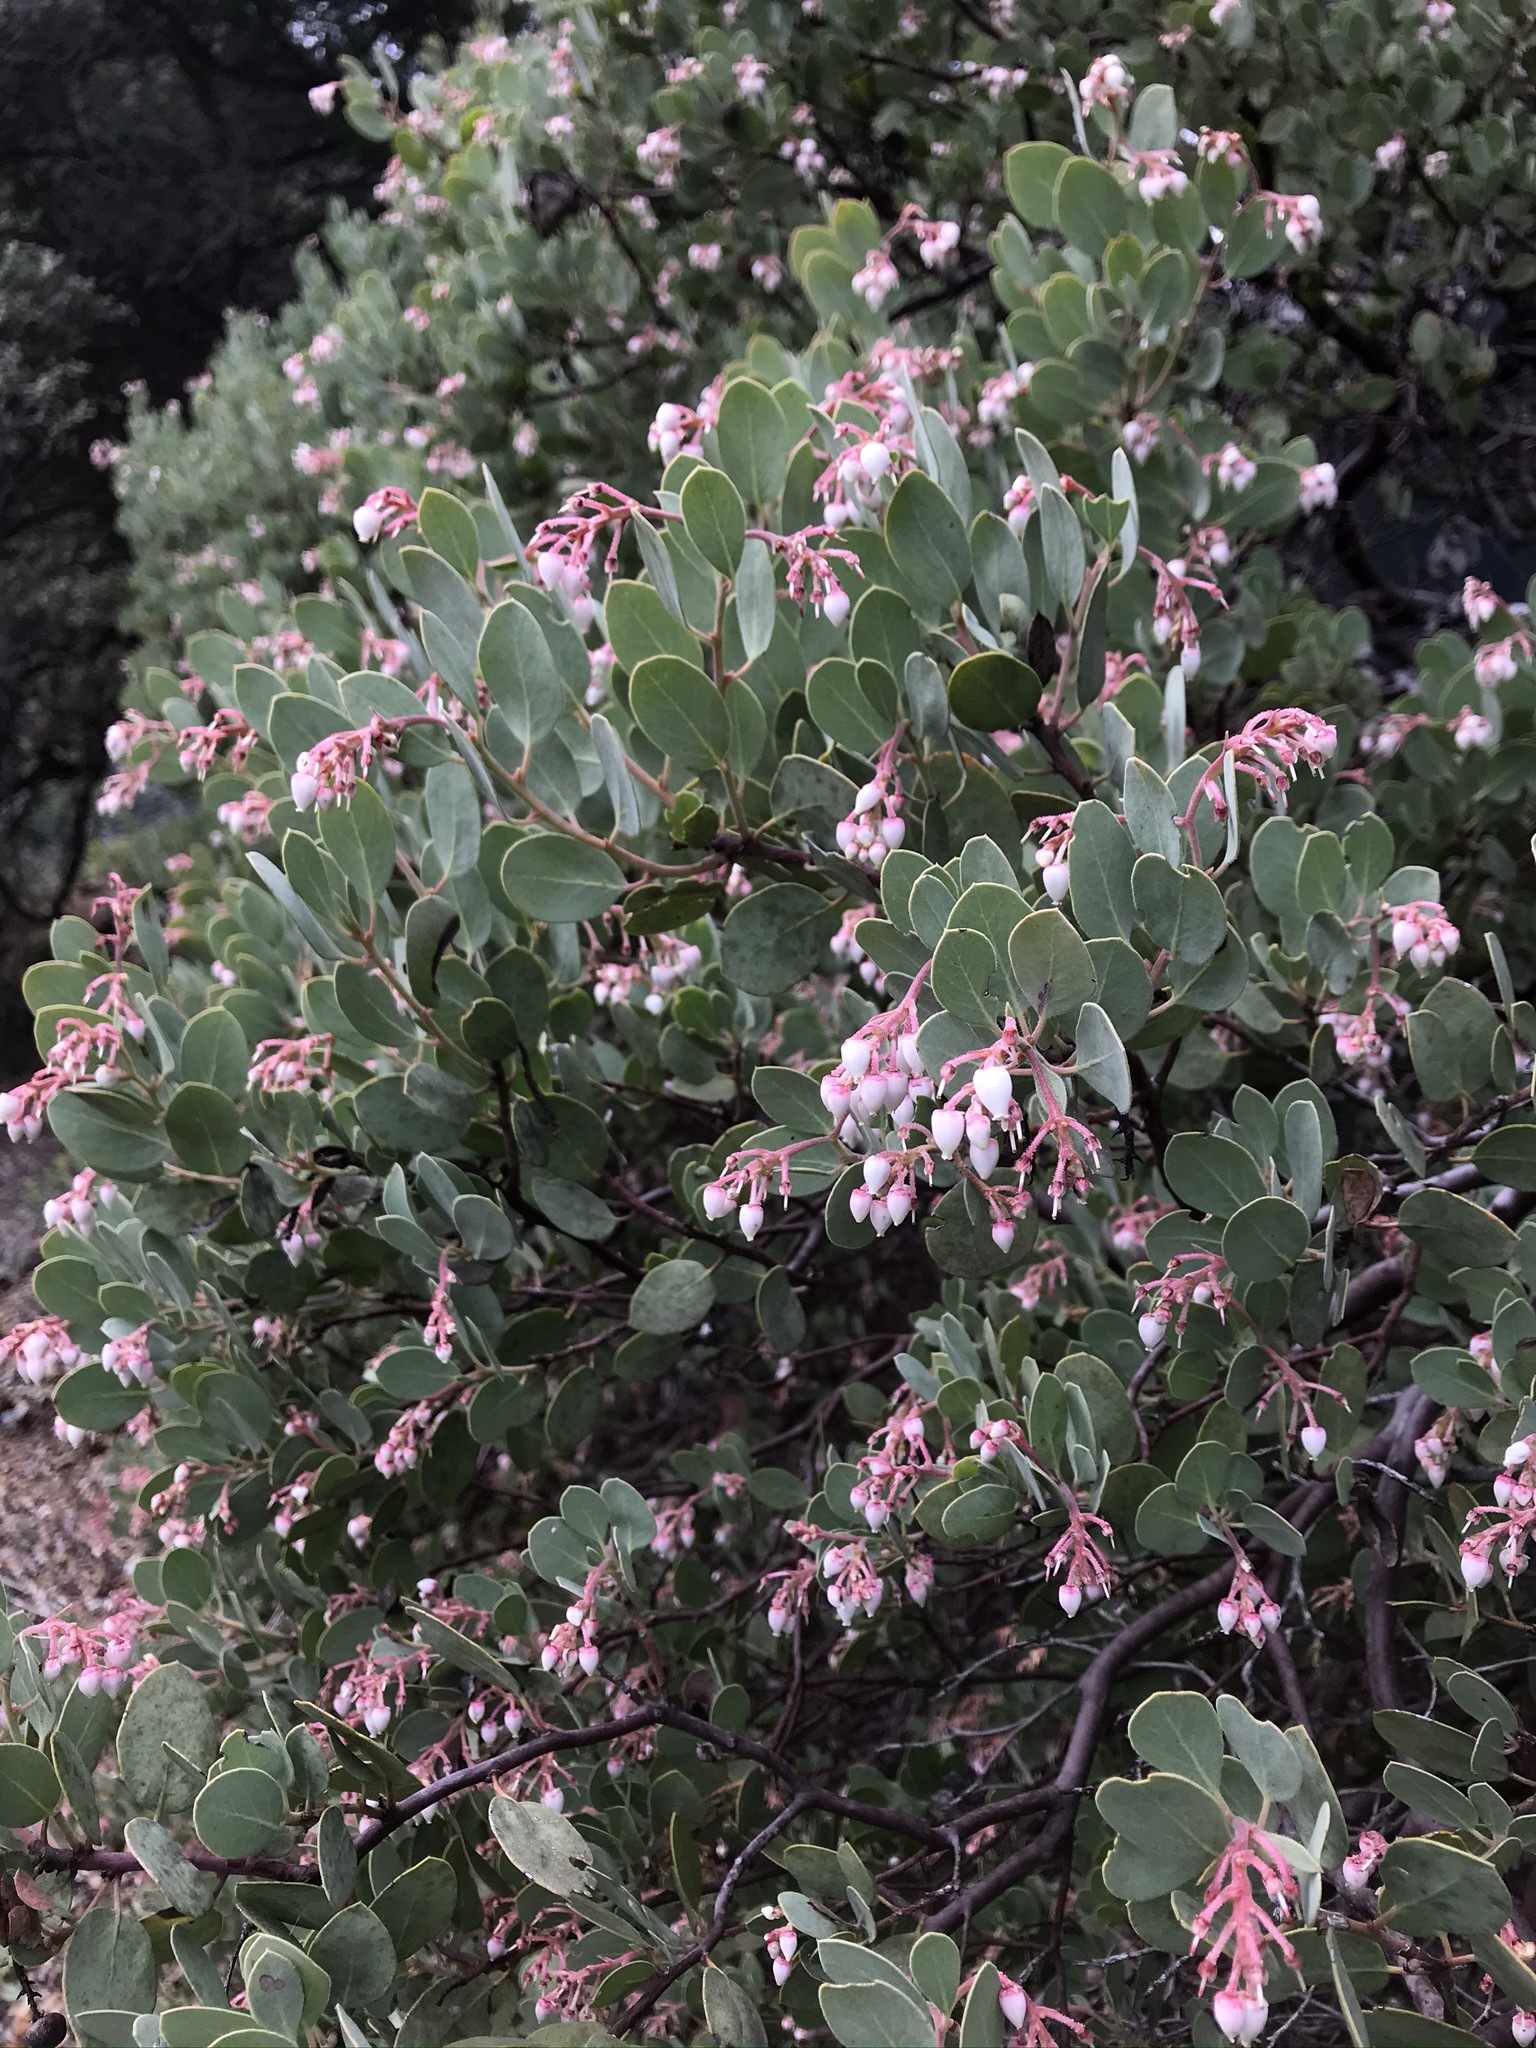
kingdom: Plantae
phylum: Tracheophyta
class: Magnoliopsida
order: Ericales
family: Ericaceae
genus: Arctostaphylos
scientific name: Arctostaphylos viscida
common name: White-leaf manzanita
